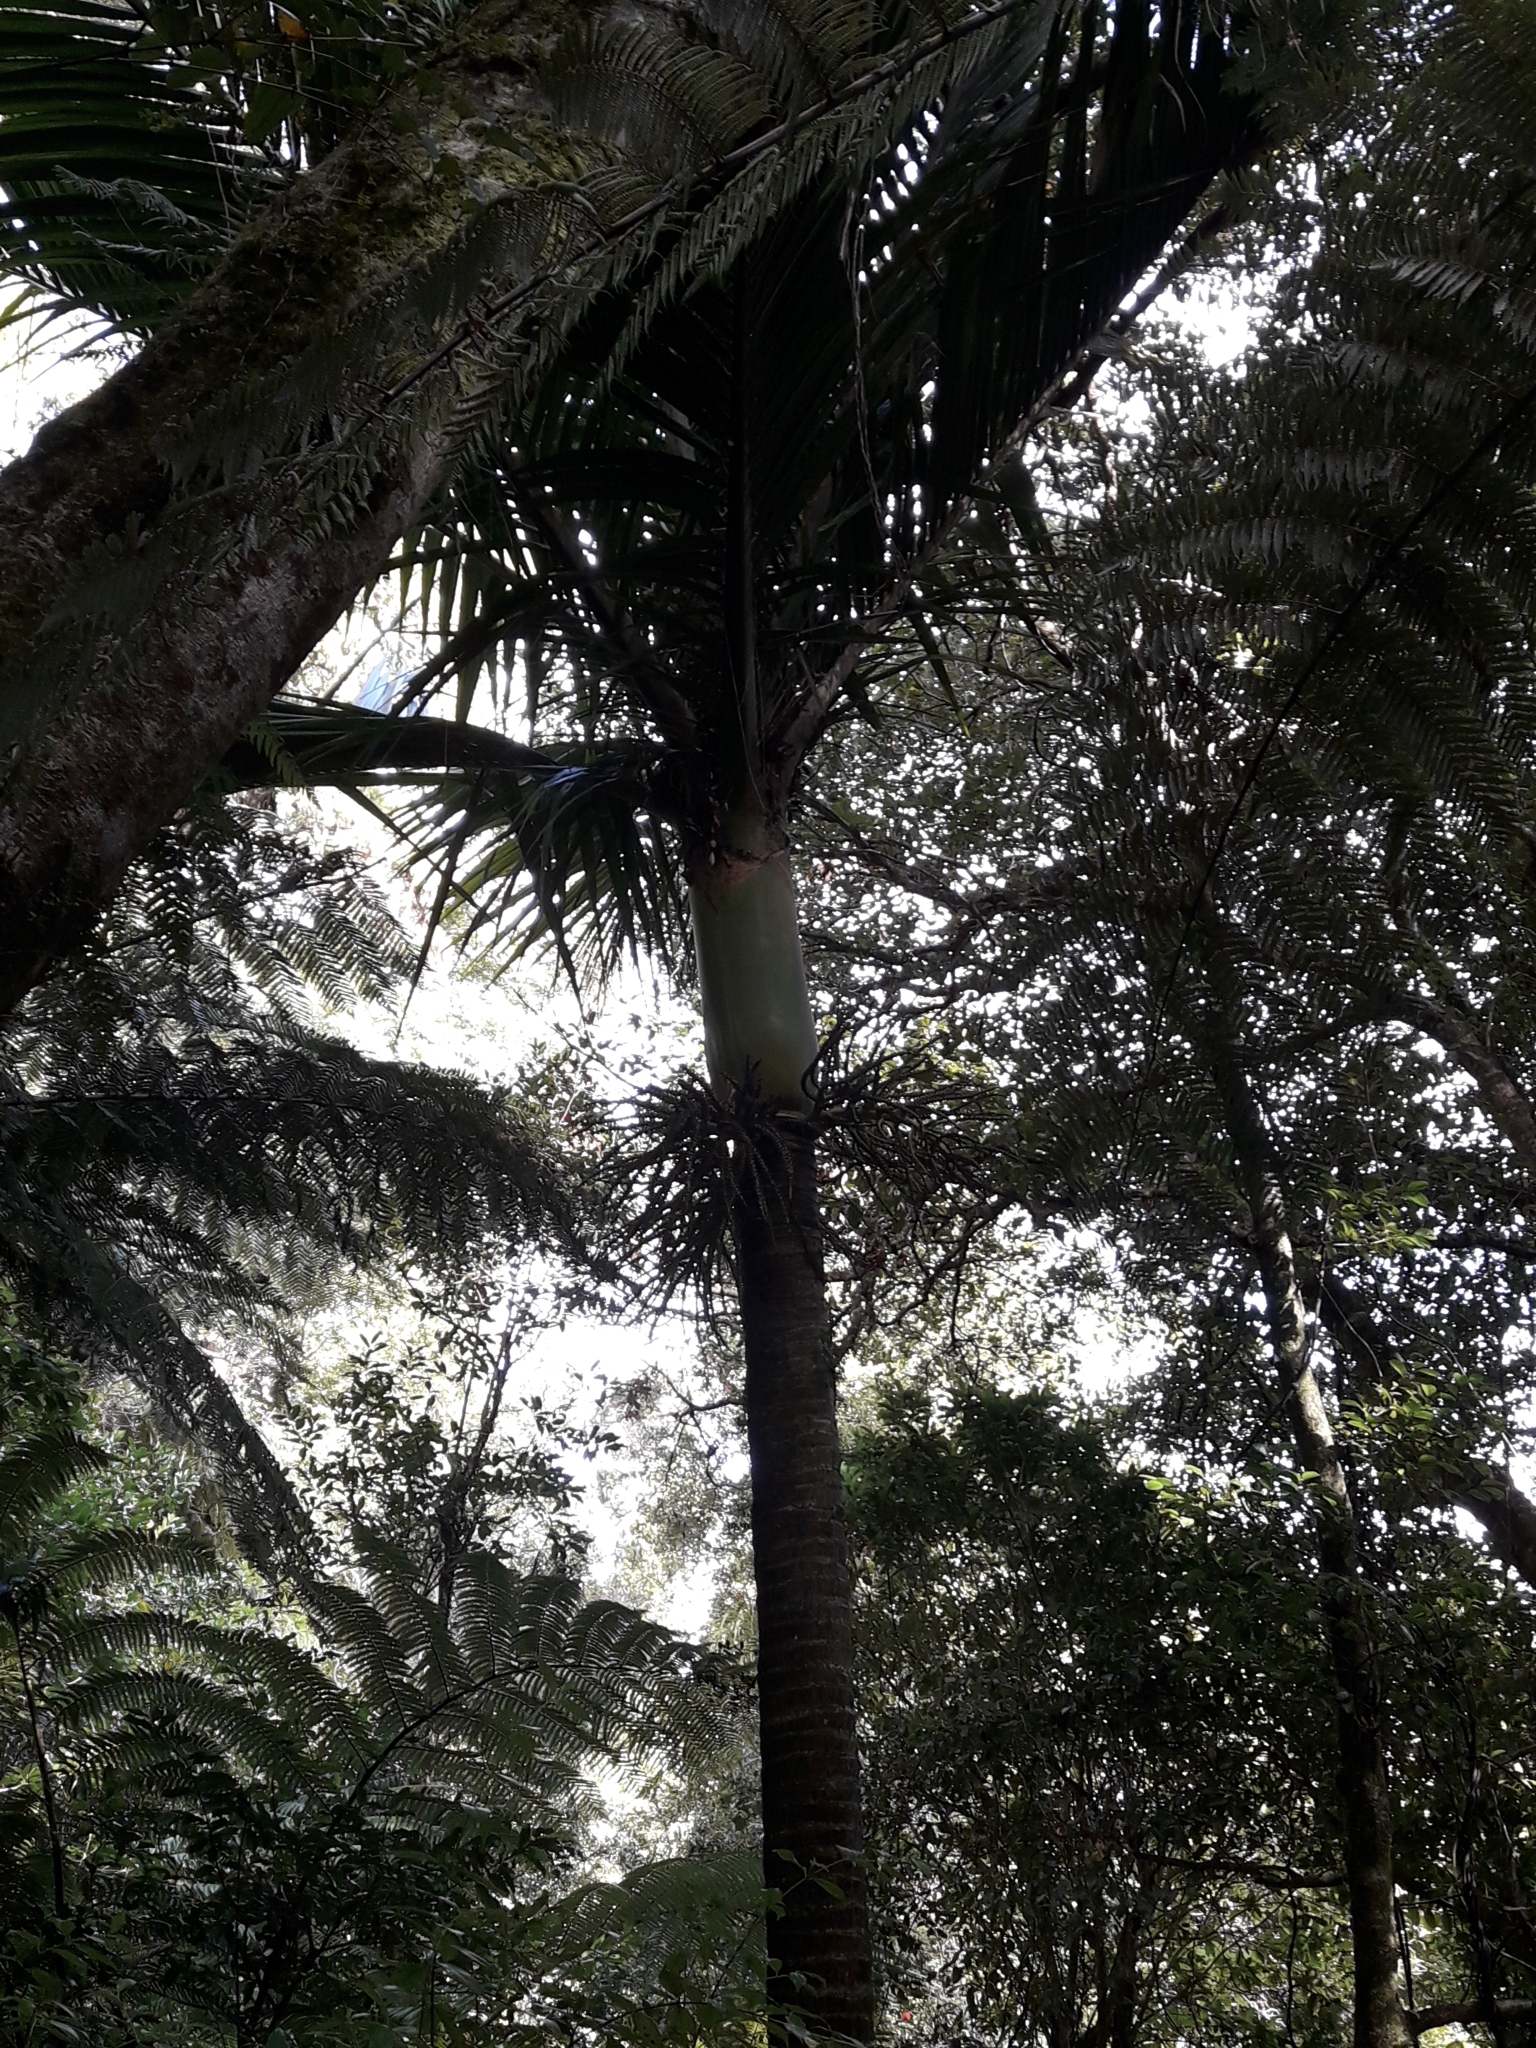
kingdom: Plantae
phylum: Tracheophyta
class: Liliopsida
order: Arecales
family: Arecaceae
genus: Rhopalostylis
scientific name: Rhopalostylis sapida
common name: Feather-duster palm
